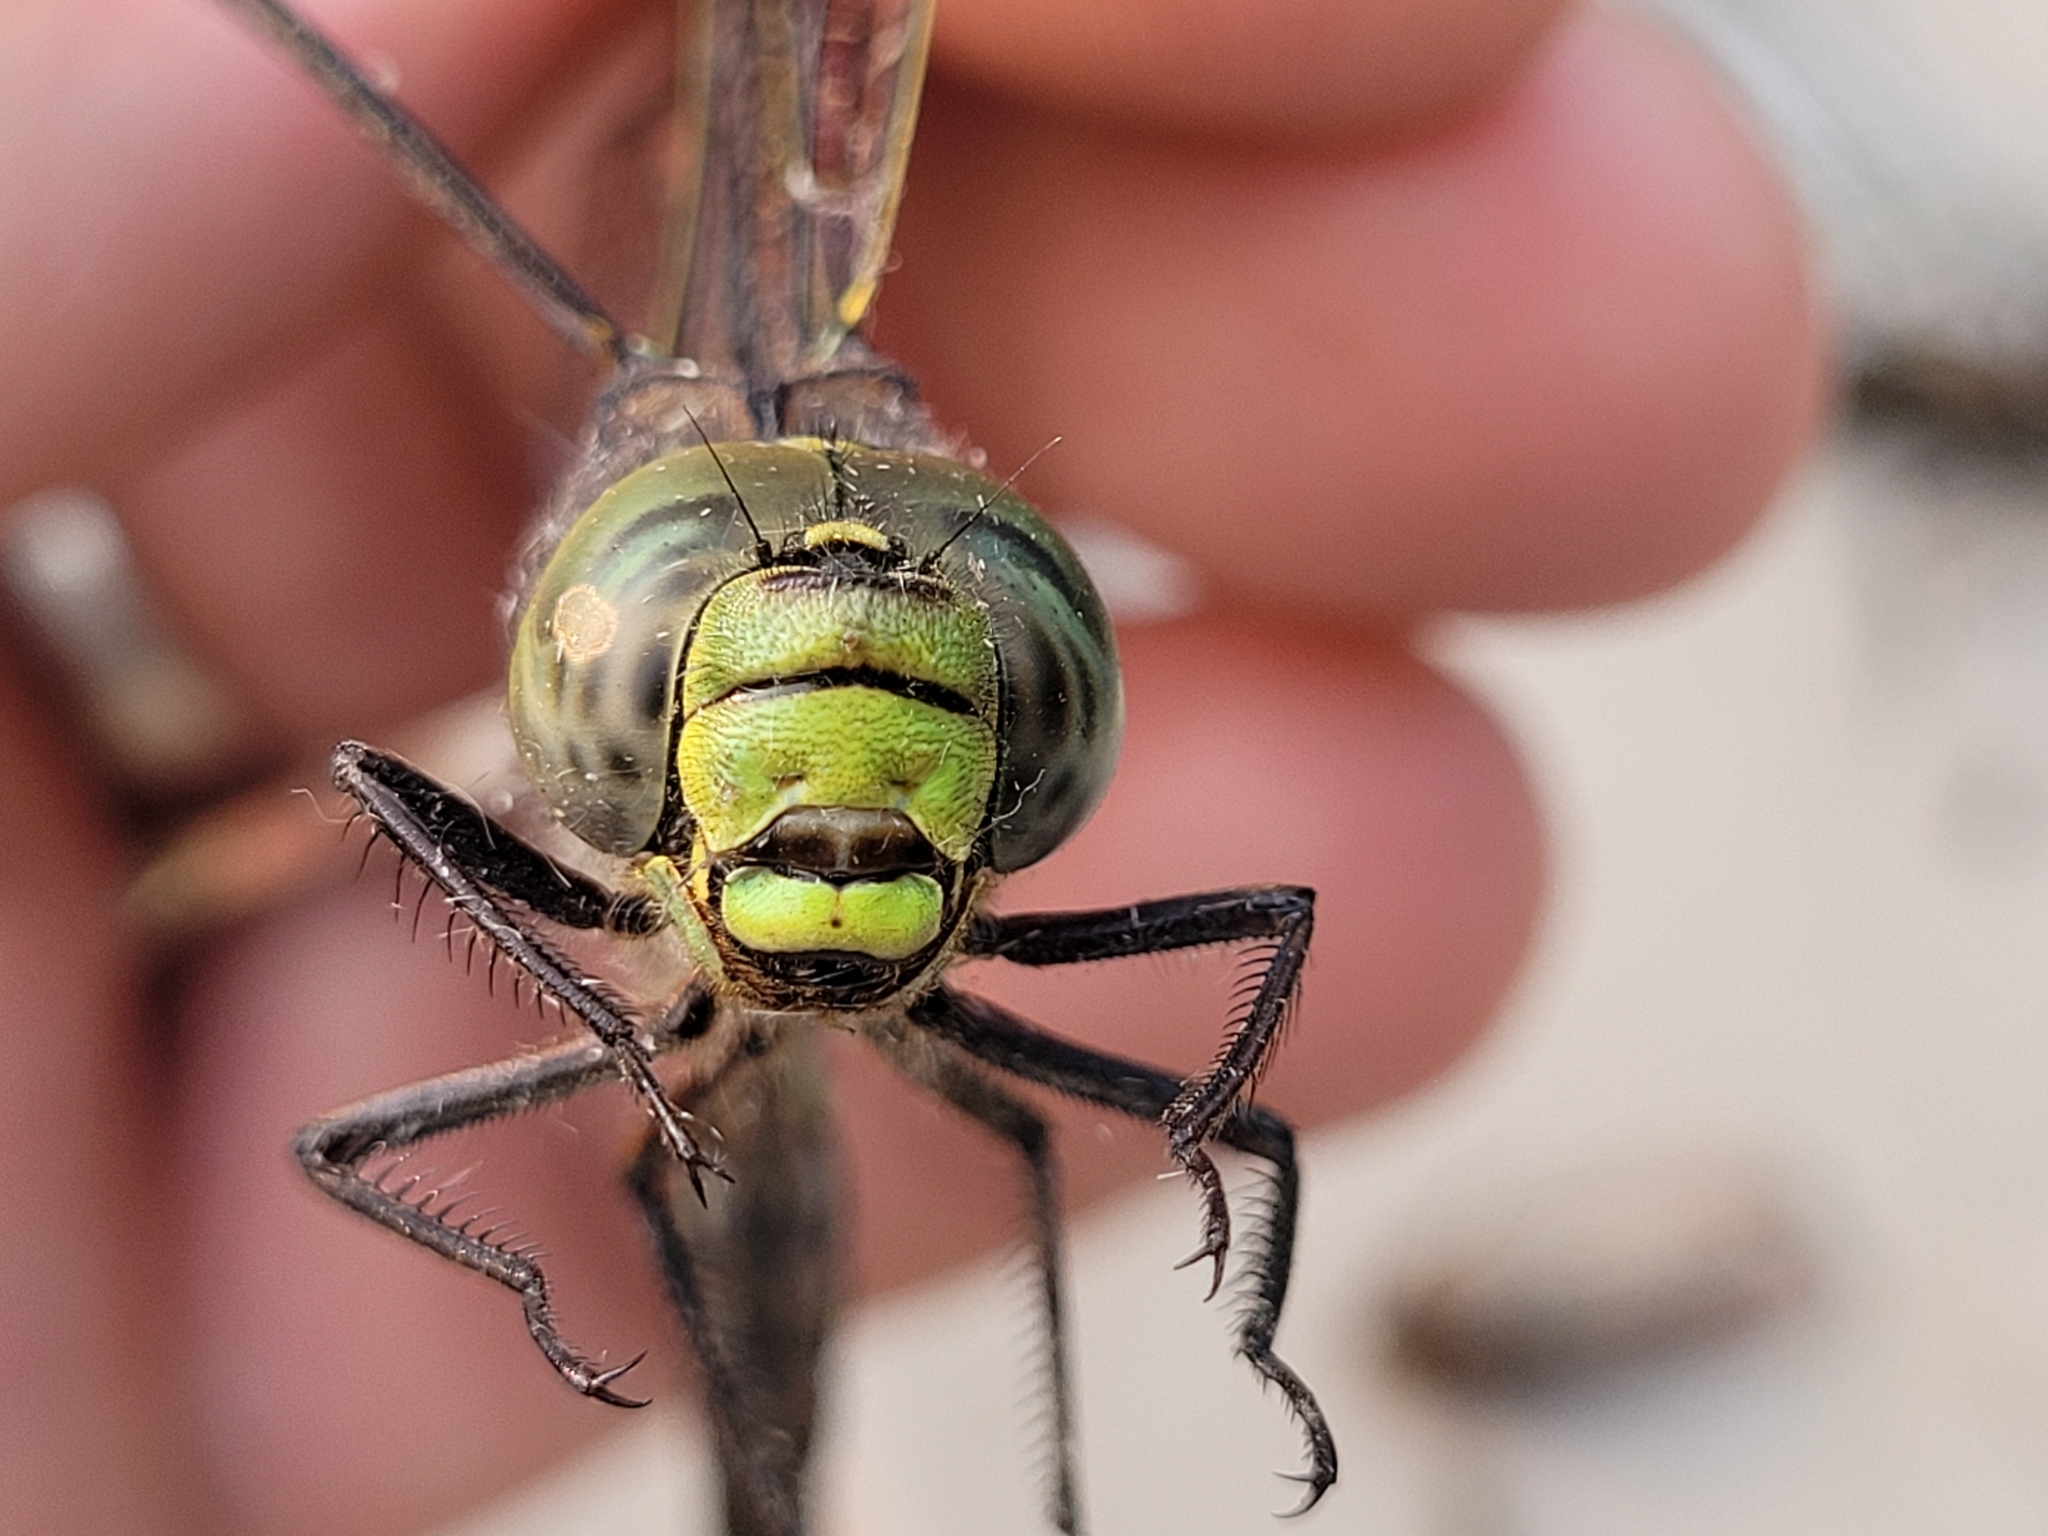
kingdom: Animalia
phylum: Arthropoda
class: Insecta
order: Odonata
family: Aeshnidae
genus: Aeshna
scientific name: Aeshna eremita
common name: Lake darner
